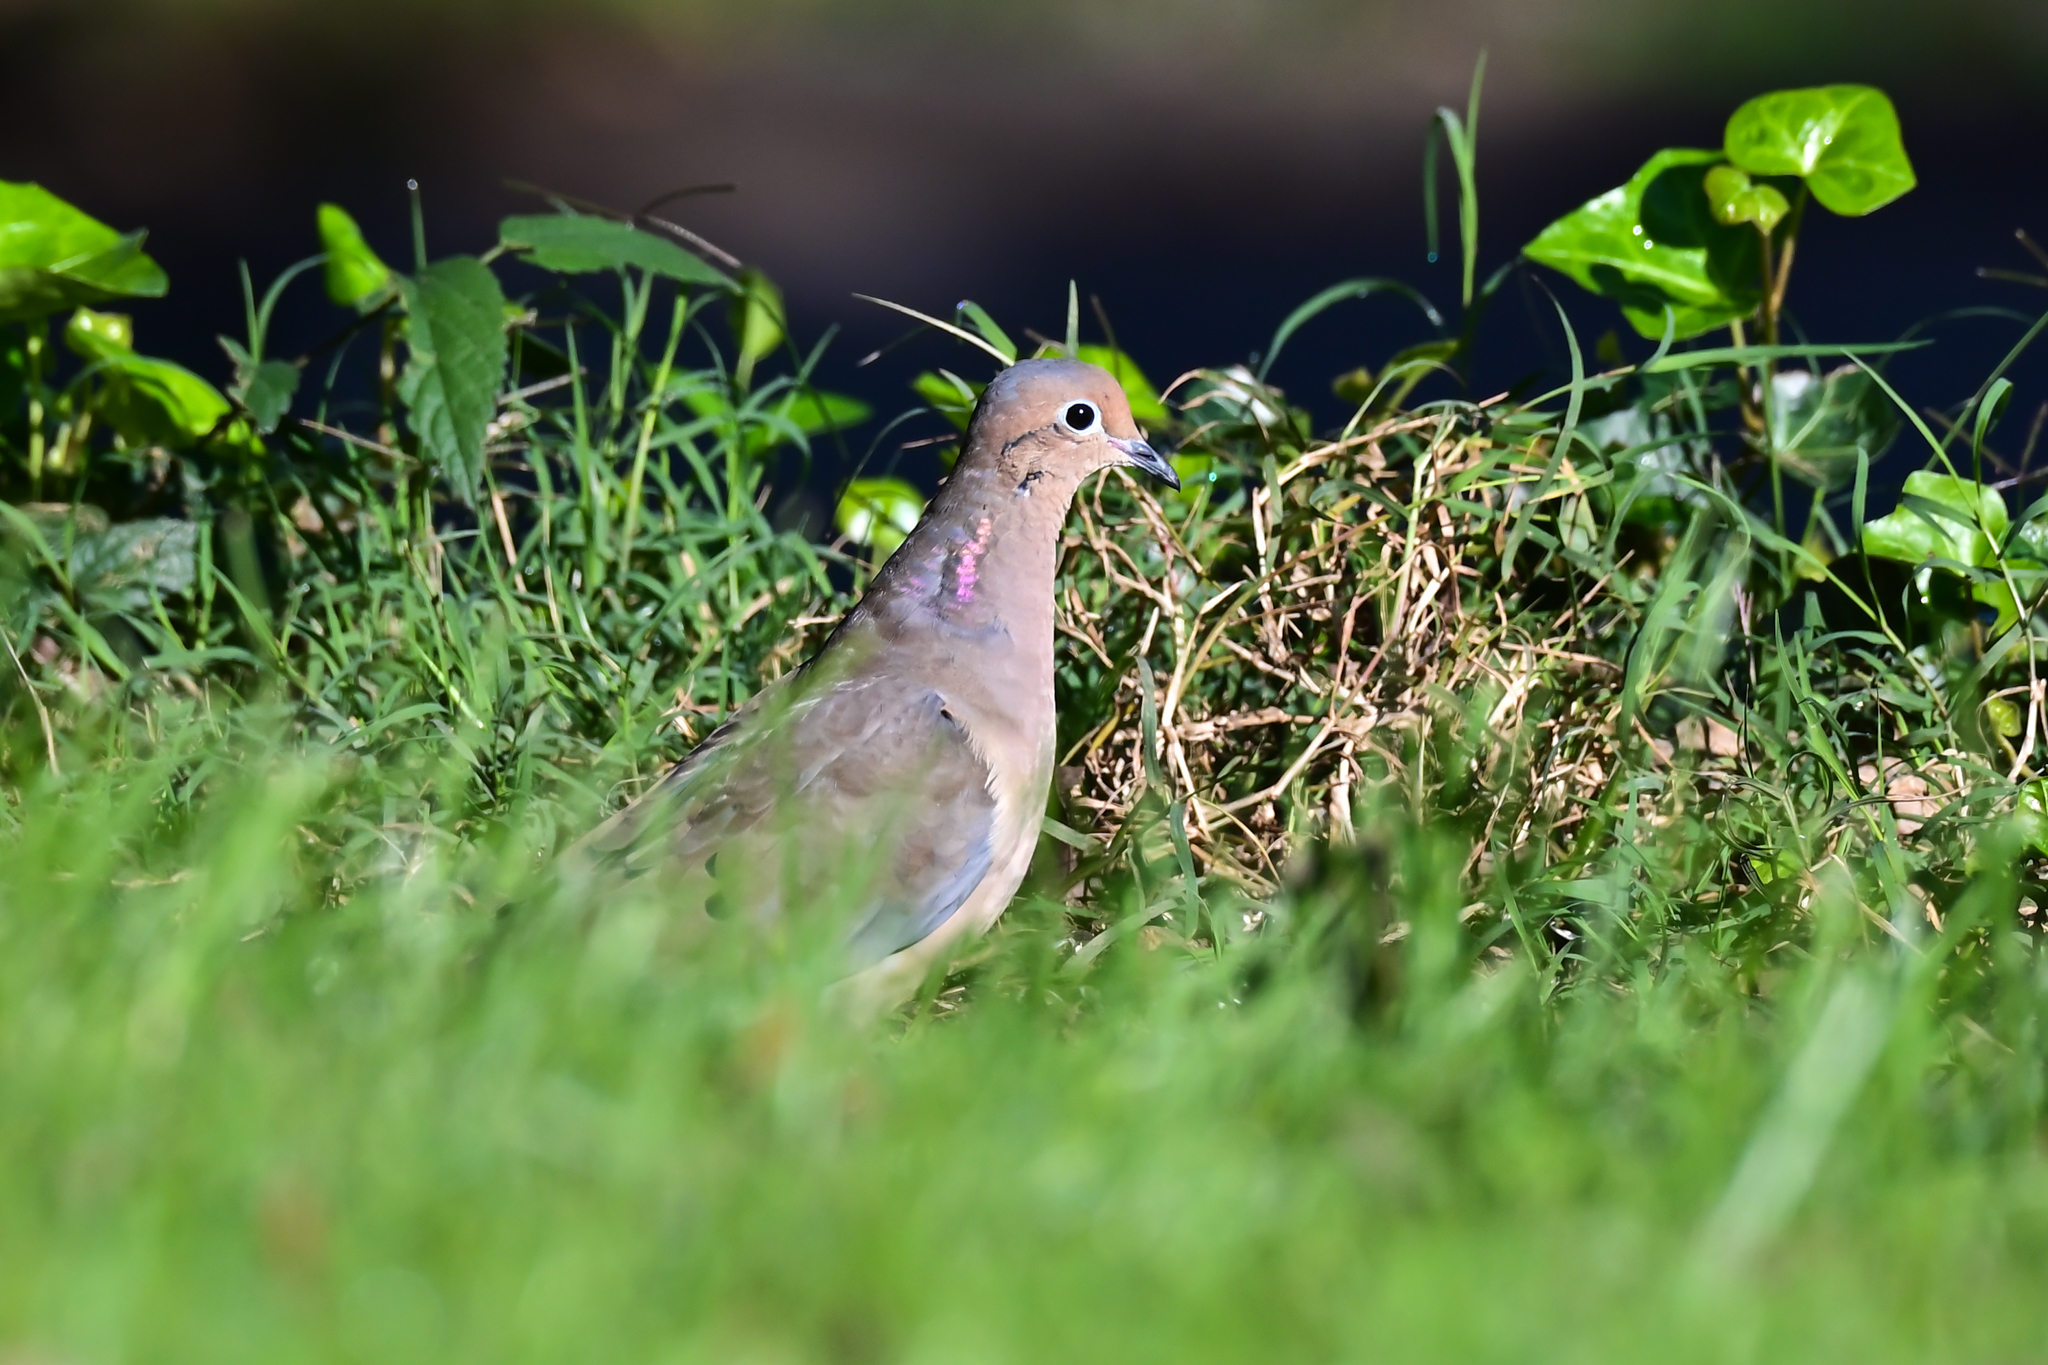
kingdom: Animalia
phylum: Chordata
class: Aves
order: Columbiformes
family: Columbidae
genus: Zenaida
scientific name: Zenaida macroura
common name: Mourning dove
